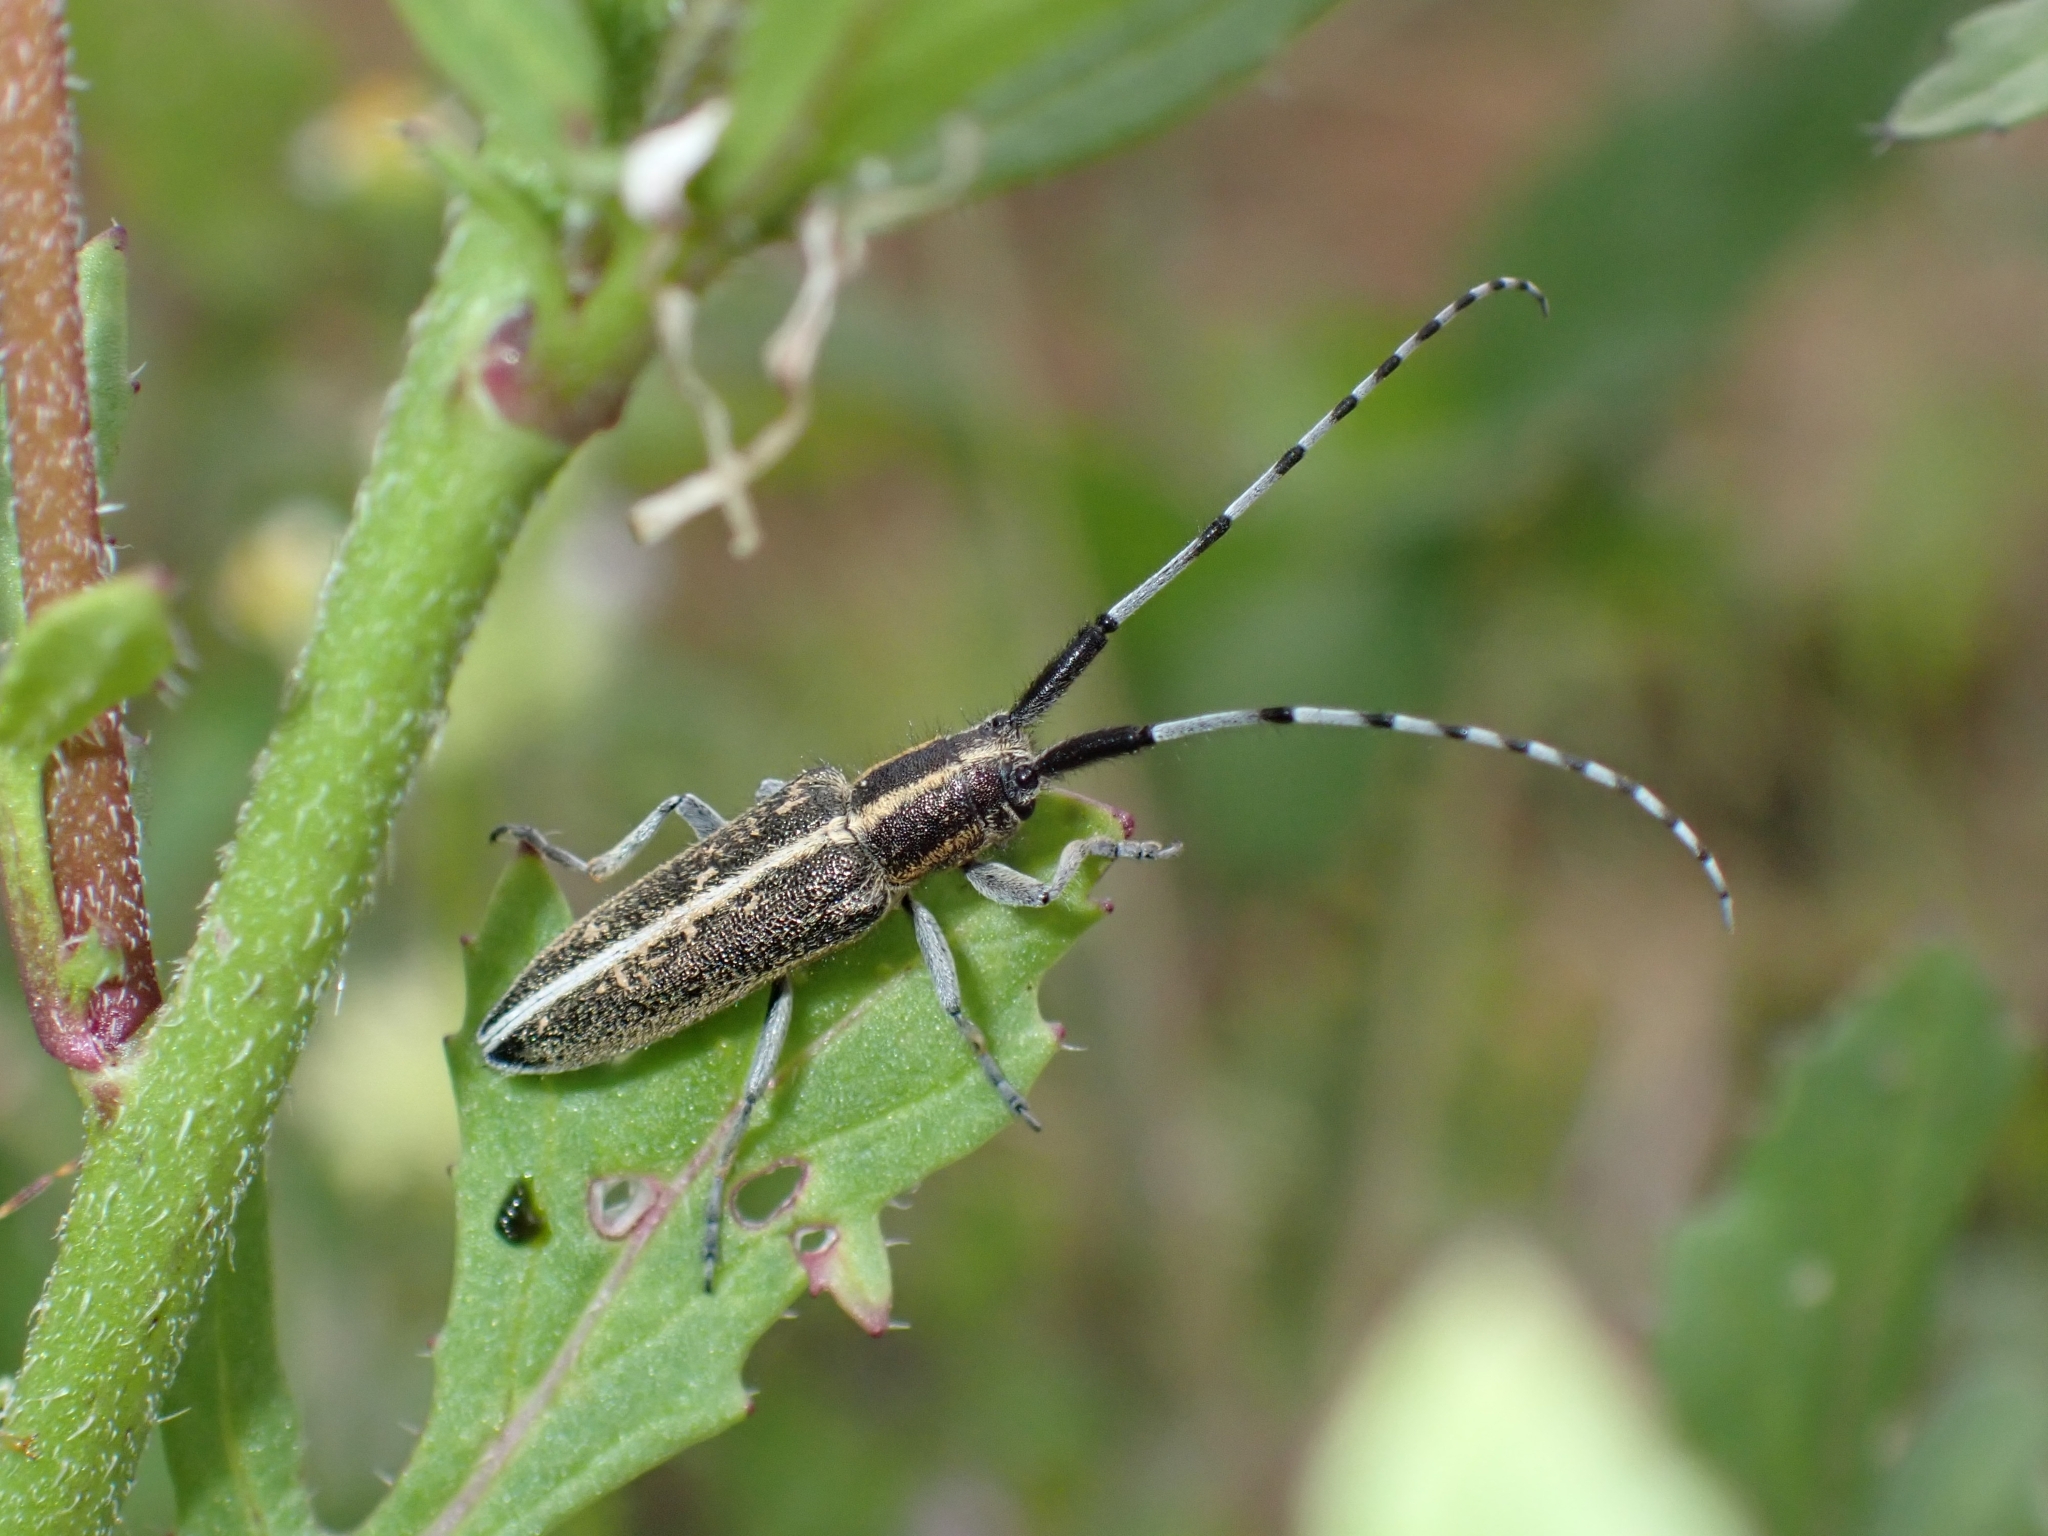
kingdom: Animalia
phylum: Arthropoda
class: Insecta
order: Coleoptera
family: Cerambycidae
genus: Agapanthia
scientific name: Agapanthia suturalis
